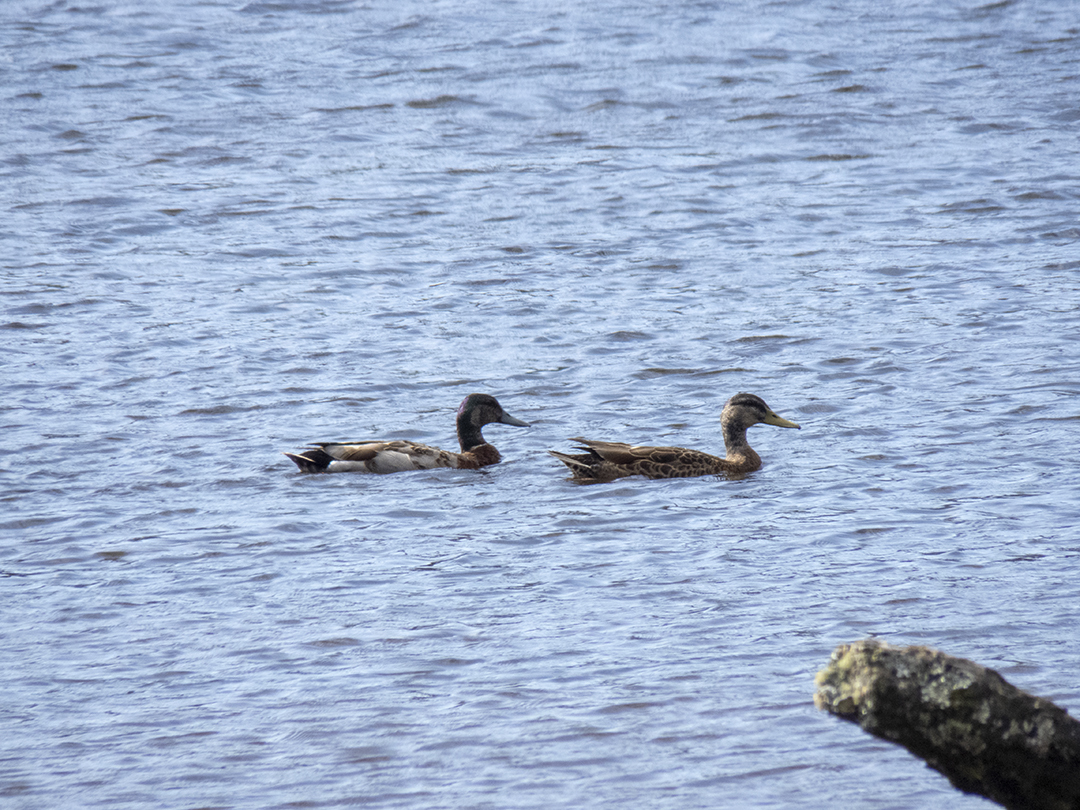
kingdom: Animalia
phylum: Chordata
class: Aves
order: Anseriformes
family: Anatidae
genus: Anas
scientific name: Anas
